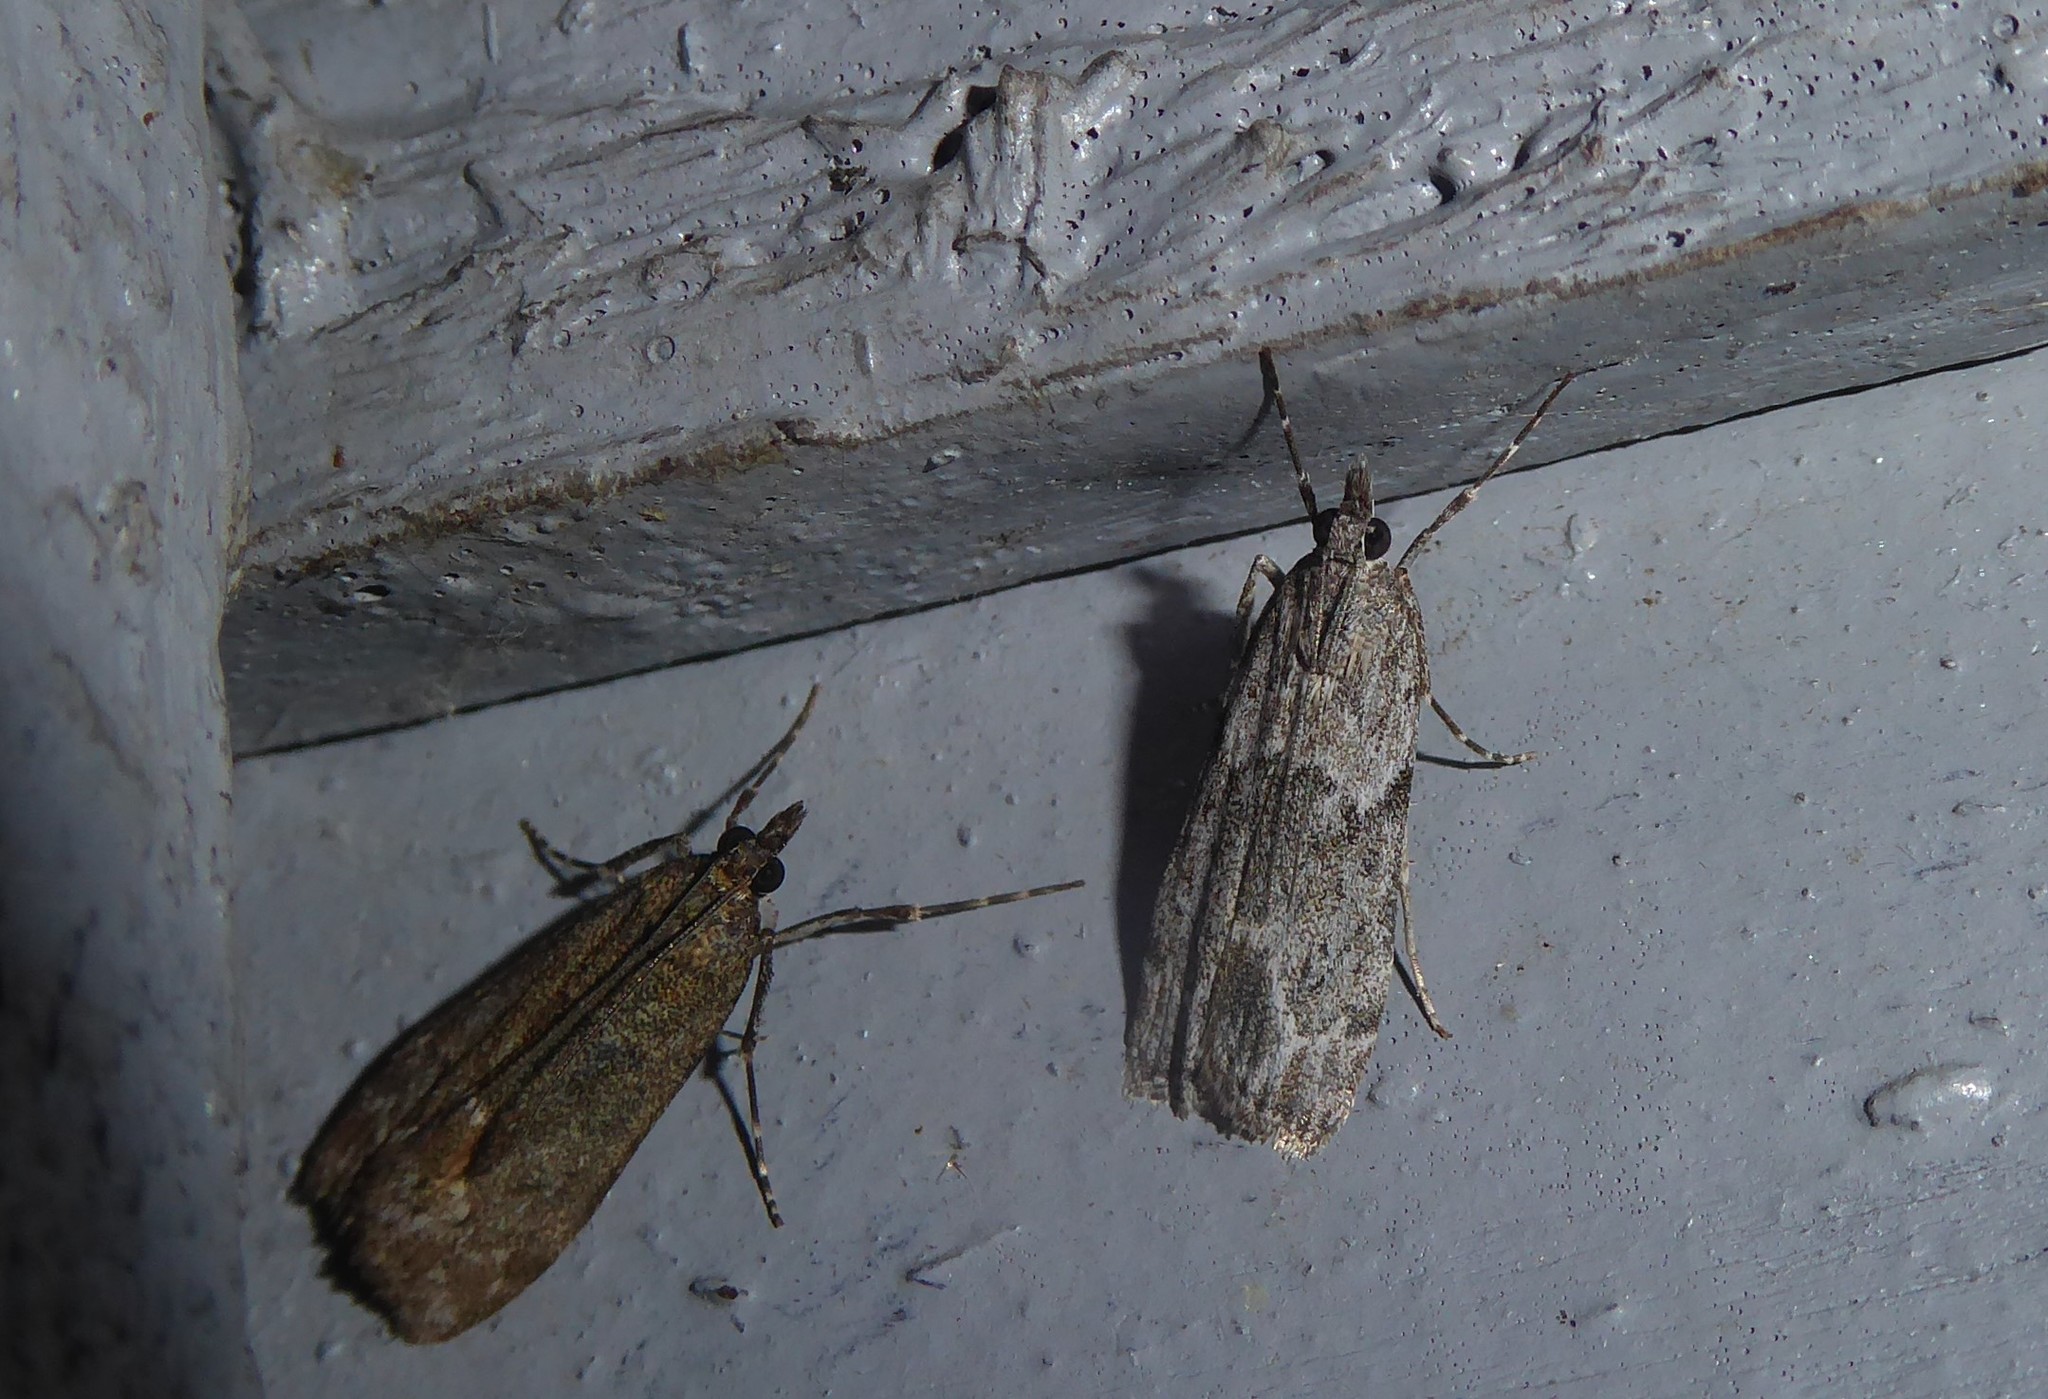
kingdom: Animalia
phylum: Arthropoda
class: Insecta
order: Lepidoptera
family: Crambidae
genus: Eudonia
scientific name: Eudonia rakaiensis
